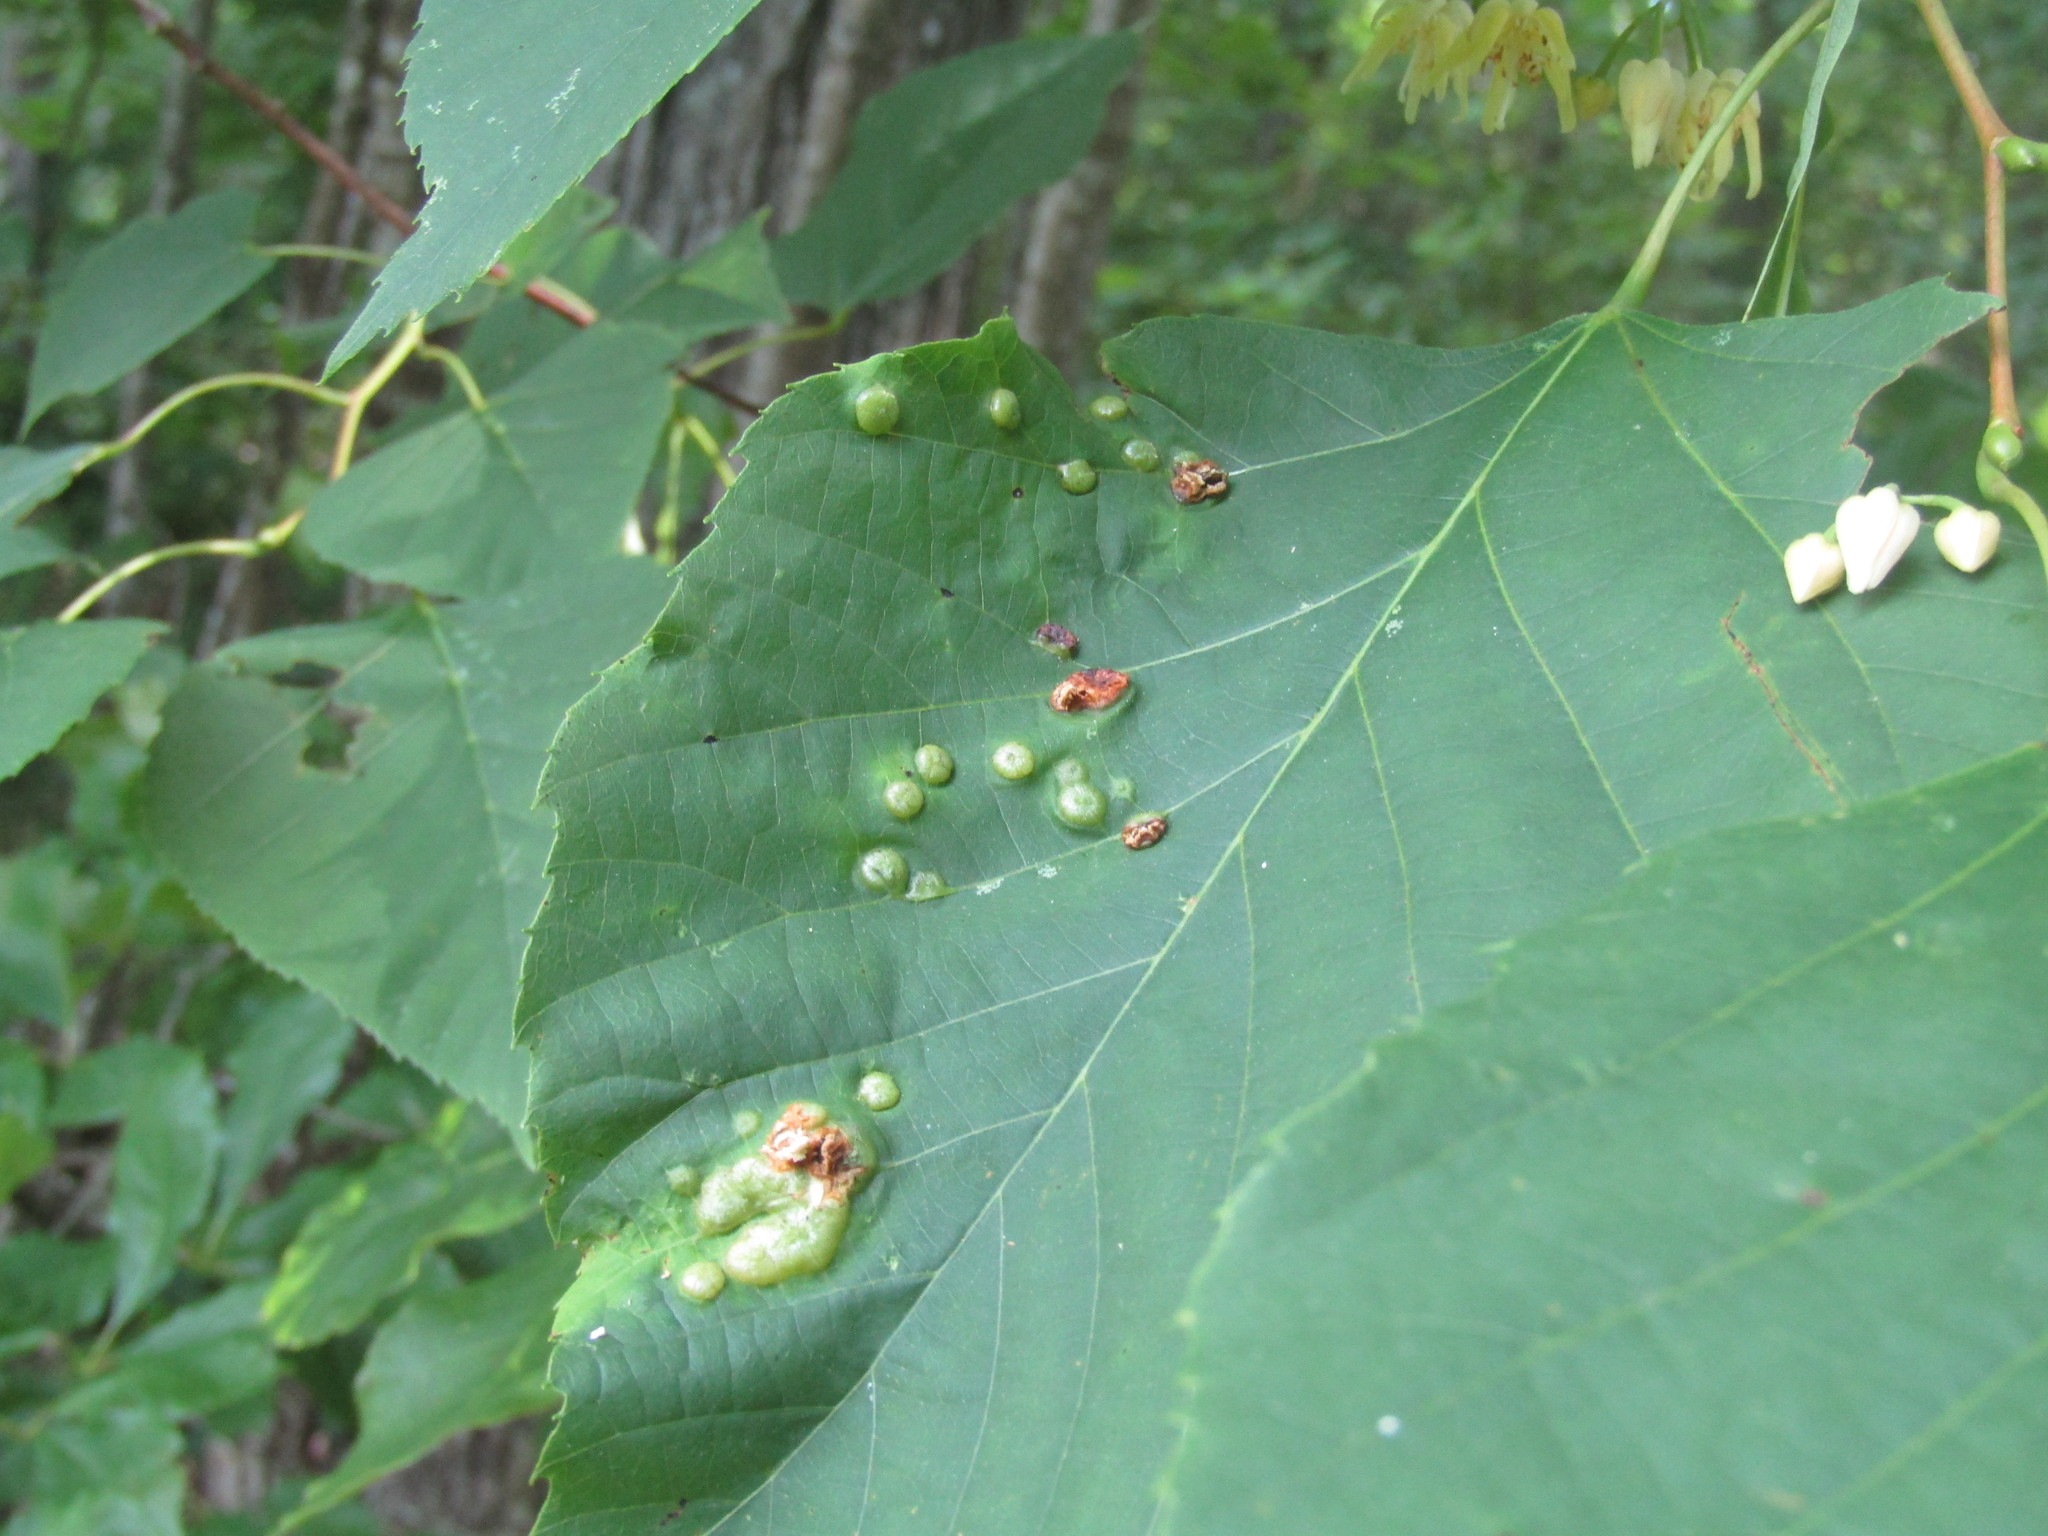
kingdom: Animalia
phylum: Arthropoda
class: Insecta
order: Diptera
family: Cecidomyiidae
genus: Contarinia
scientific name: Contarinia verrucicola
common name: Linden wart gall midge
